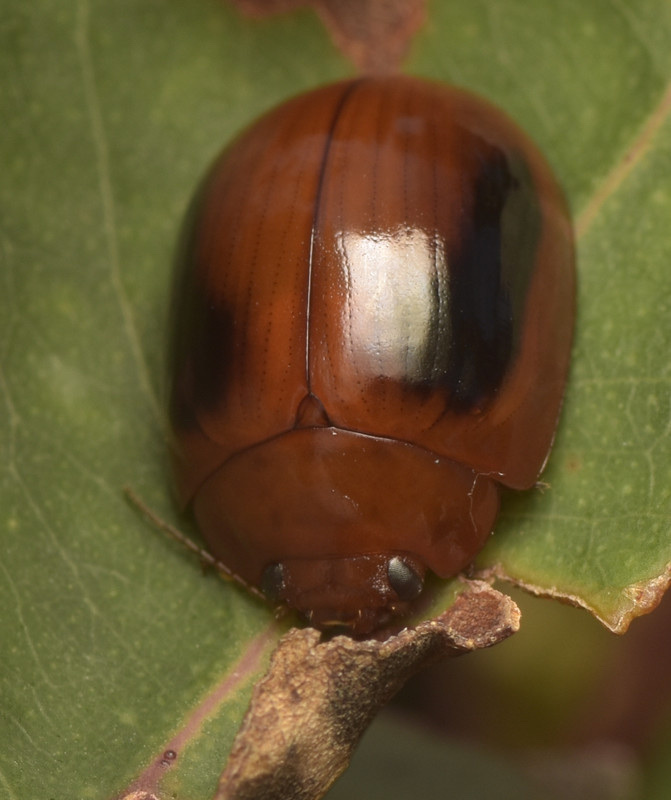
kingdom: Animalia
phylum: Arthropoda
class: Insecta
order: Coleoptera
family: Chrysomelidae
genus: Paropsisterna
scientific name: Paropsisterna
